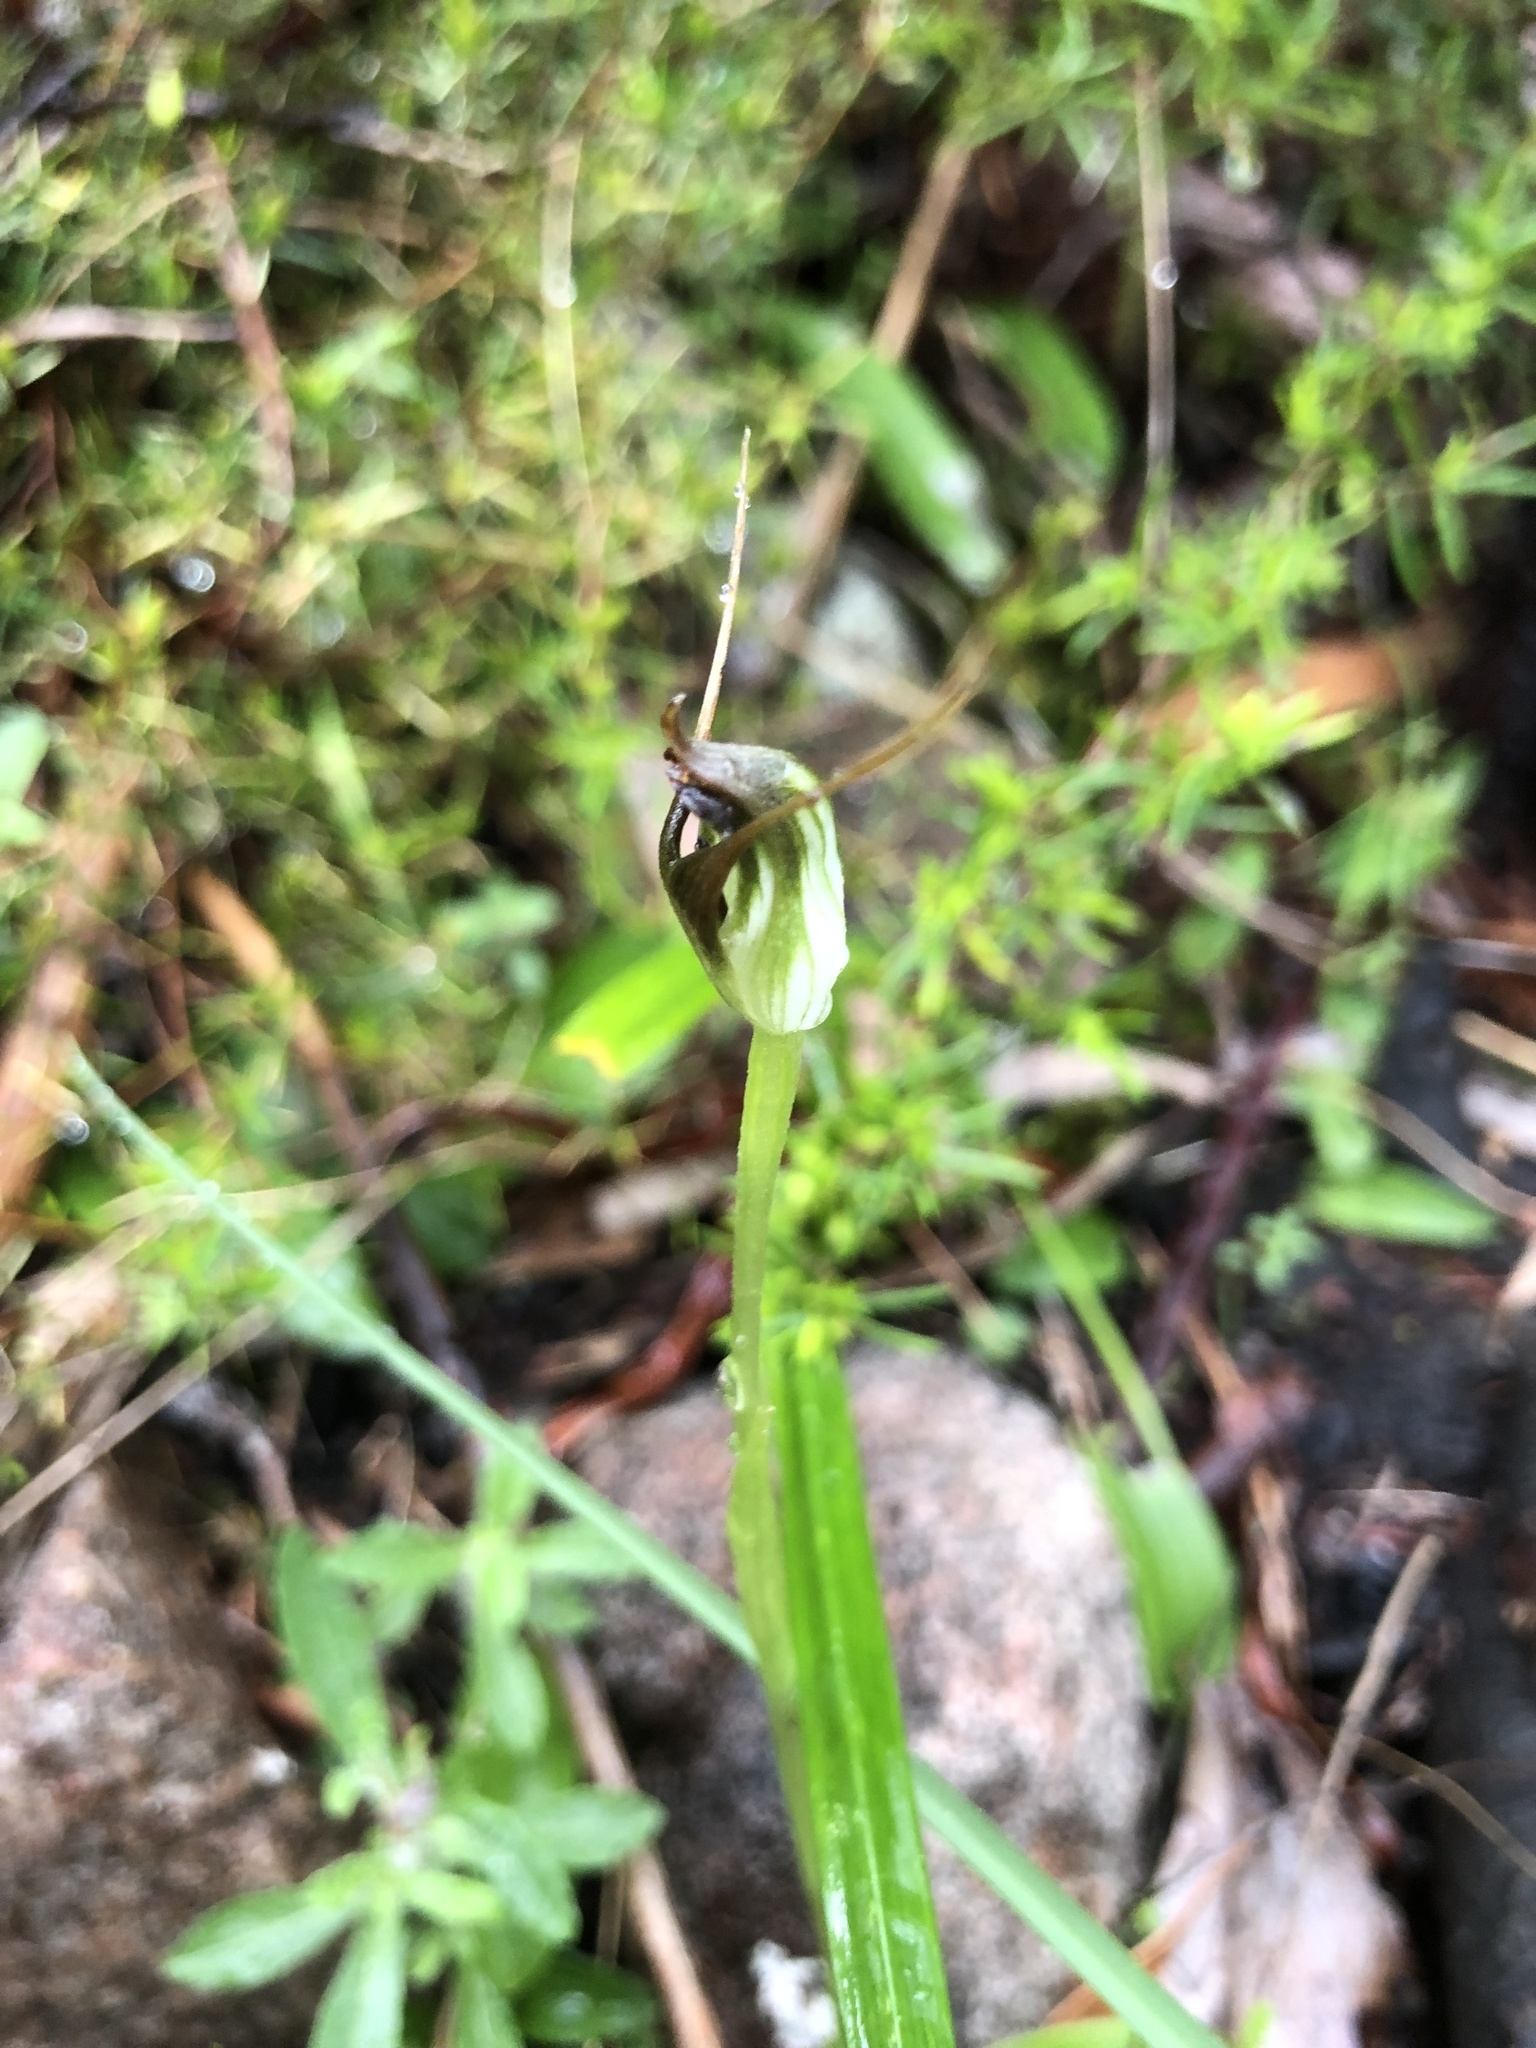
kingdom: Plantae
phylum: Tracheophyta
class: Liliopsida
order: Asparagales
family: Orchidaceae
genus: Pterostylis
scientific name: Pterostylis pedunculata
